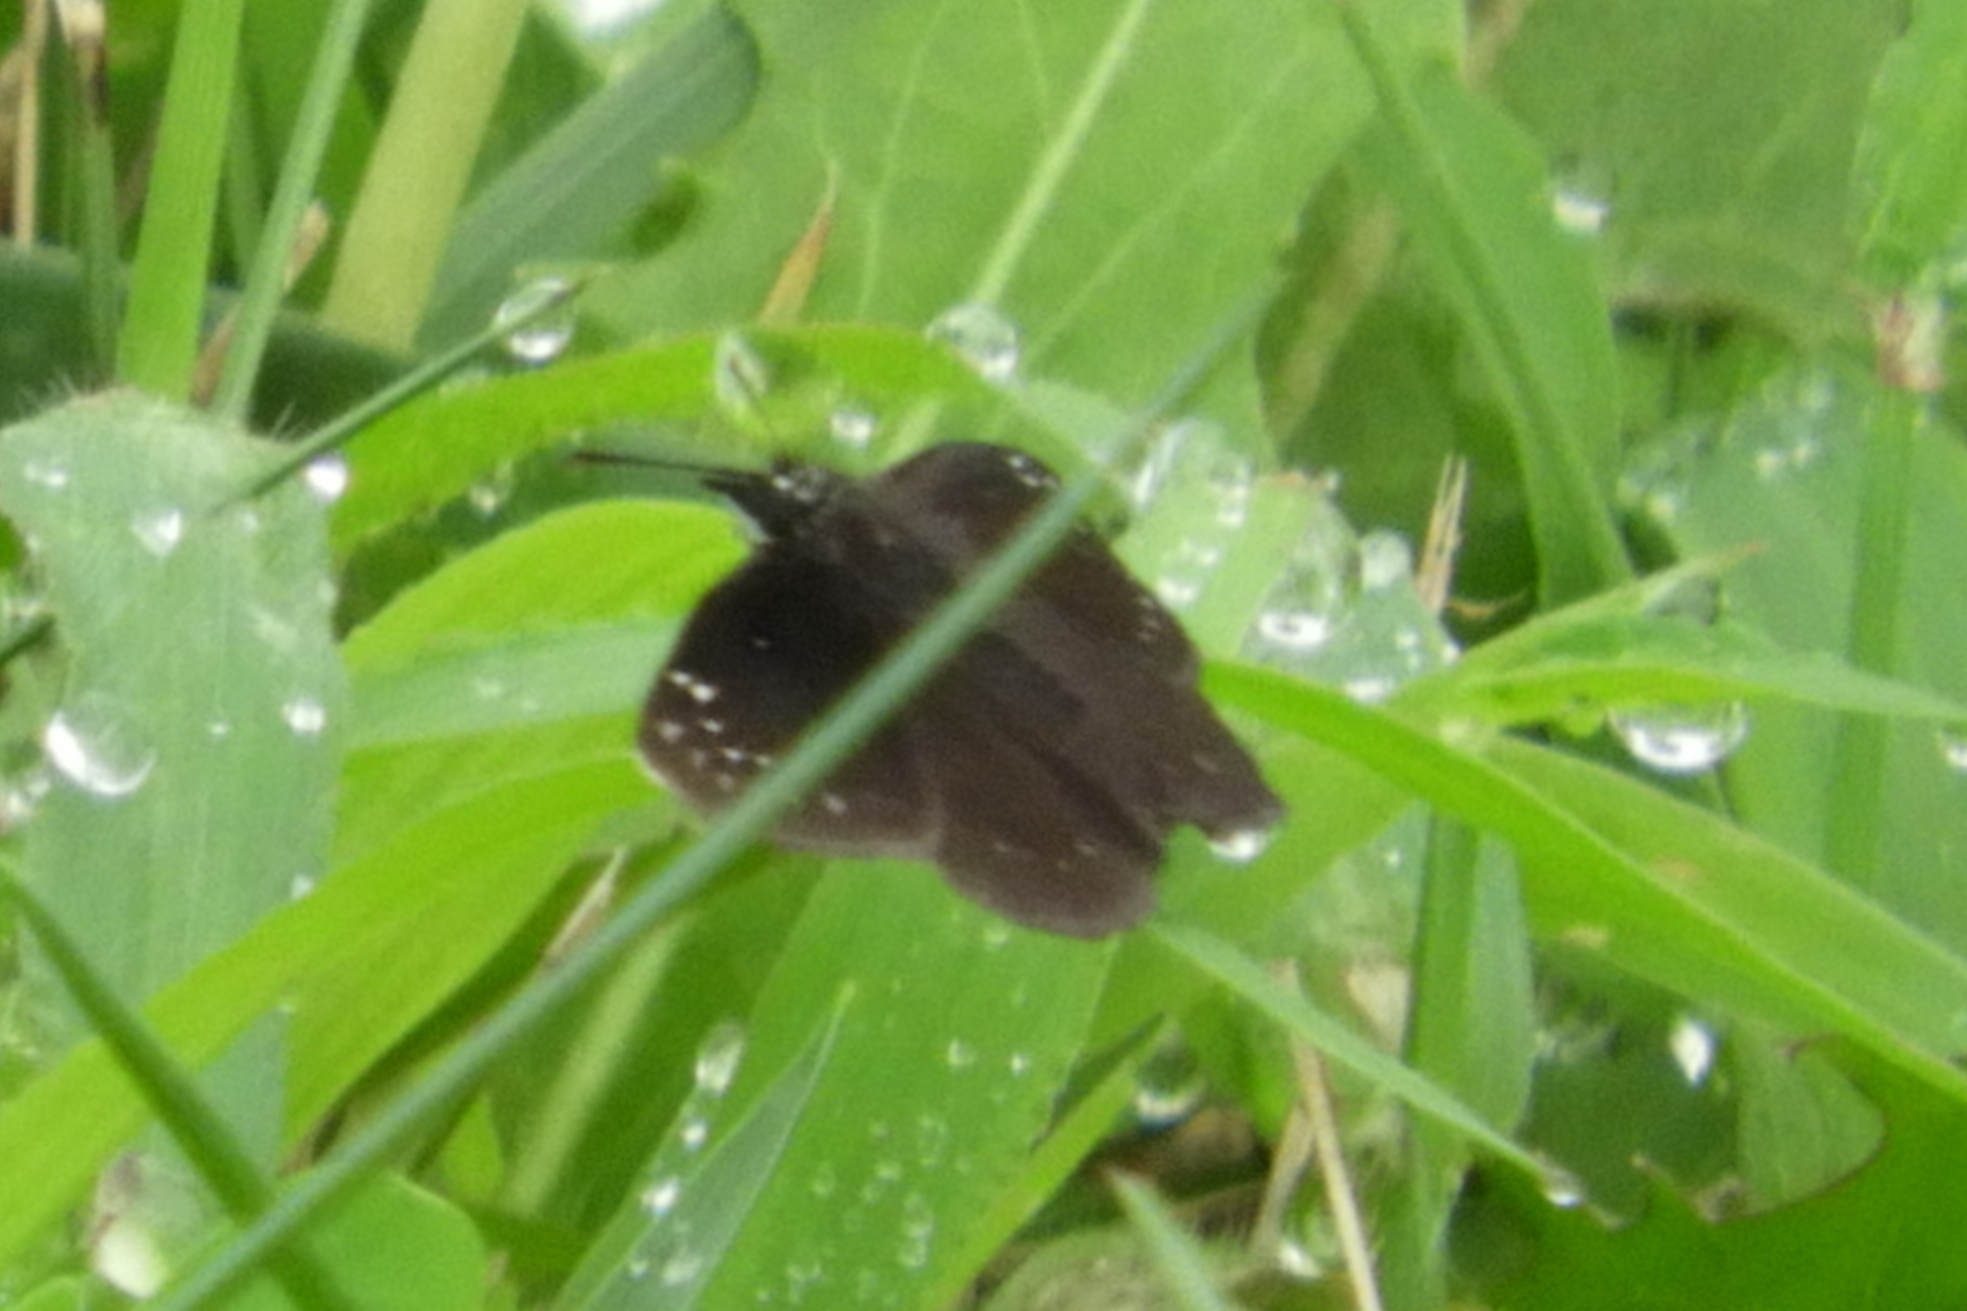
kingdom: Animalia
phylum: Arthropoda
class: Insecta
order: Lepidoptera
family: Hesperiidae
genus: Pholisora
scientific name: Pholisora catullus
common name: Common sootywing
